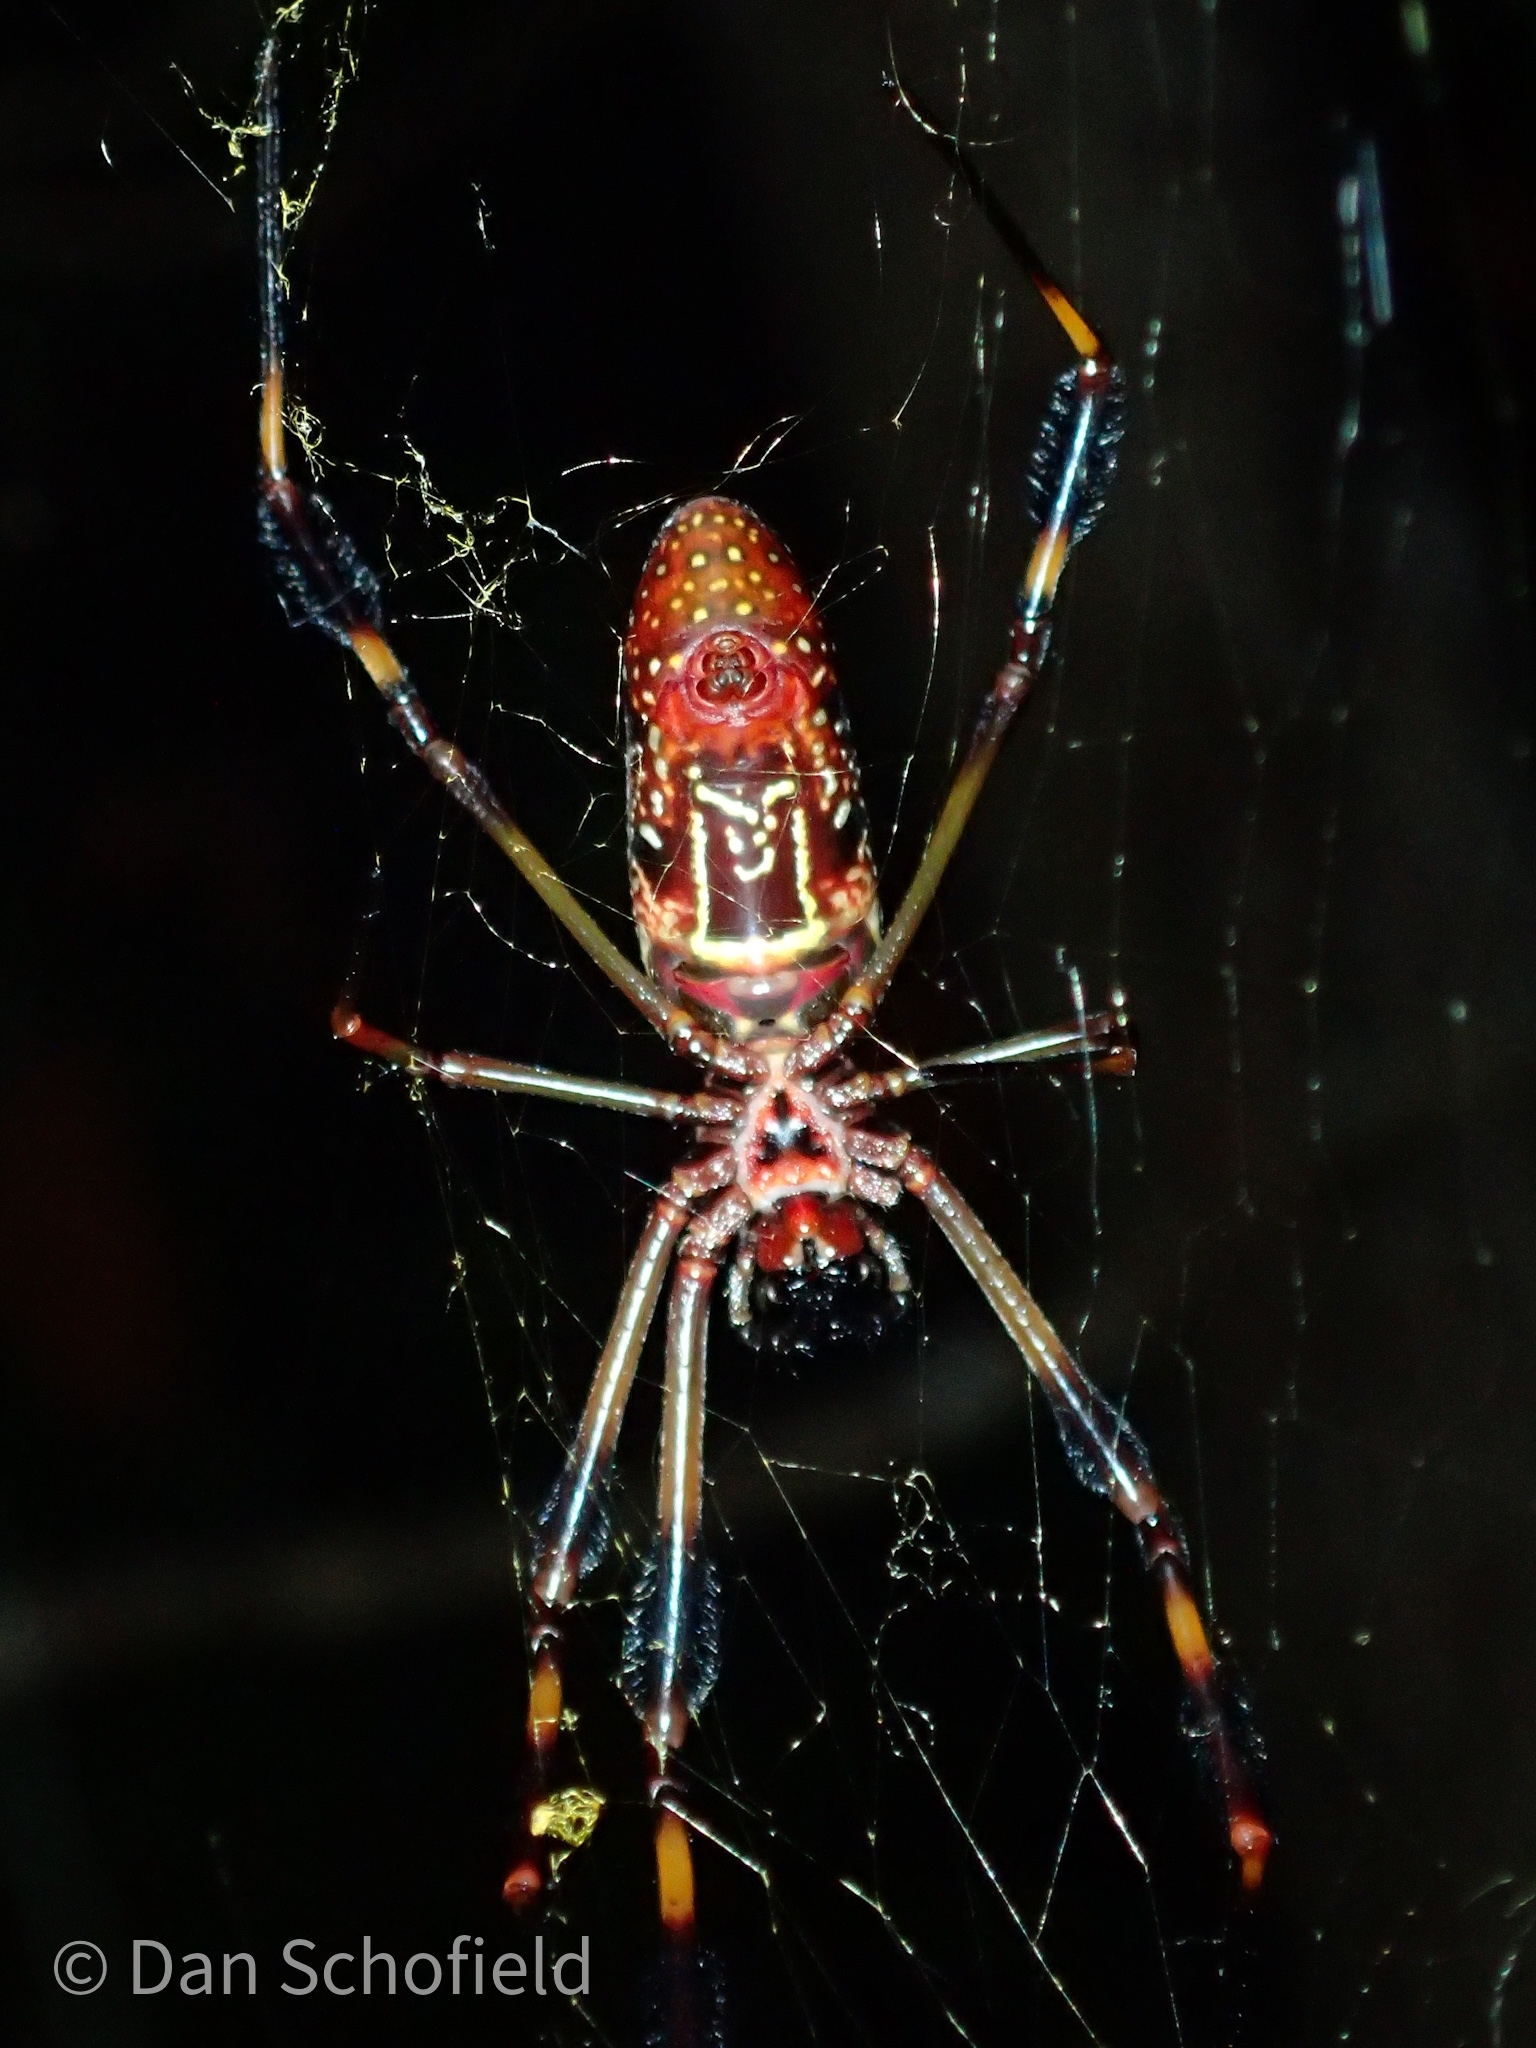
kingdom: Animalia
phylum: Arthropoda
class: Arachnida
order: Araneae
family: Araneidae
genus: Trichonephila
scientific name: Trichonephila clavipes
